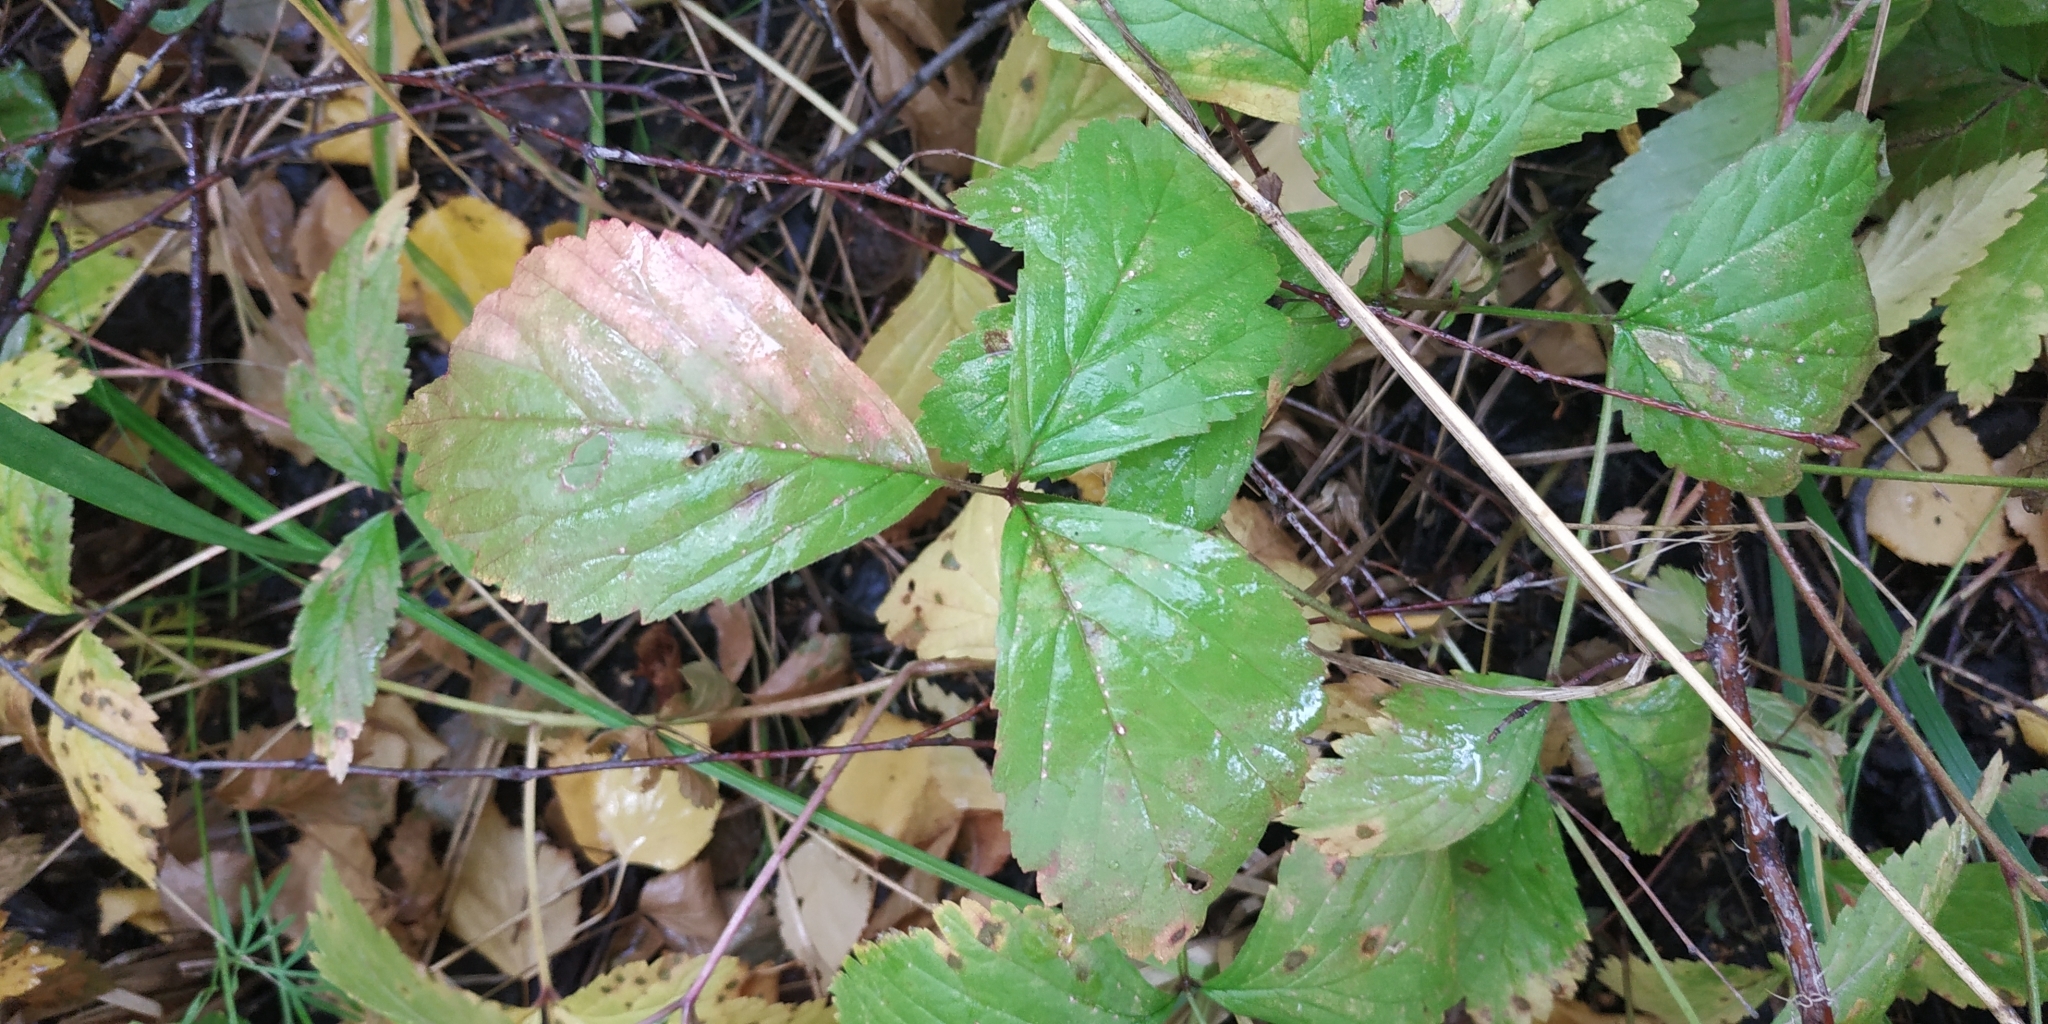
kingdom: Plantae
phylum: Tracheophyta
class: Magnoliopsida
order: Rosales
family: Rosaceae
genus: Rubus
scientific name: Rubus saxatilis
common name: Stone bramble
